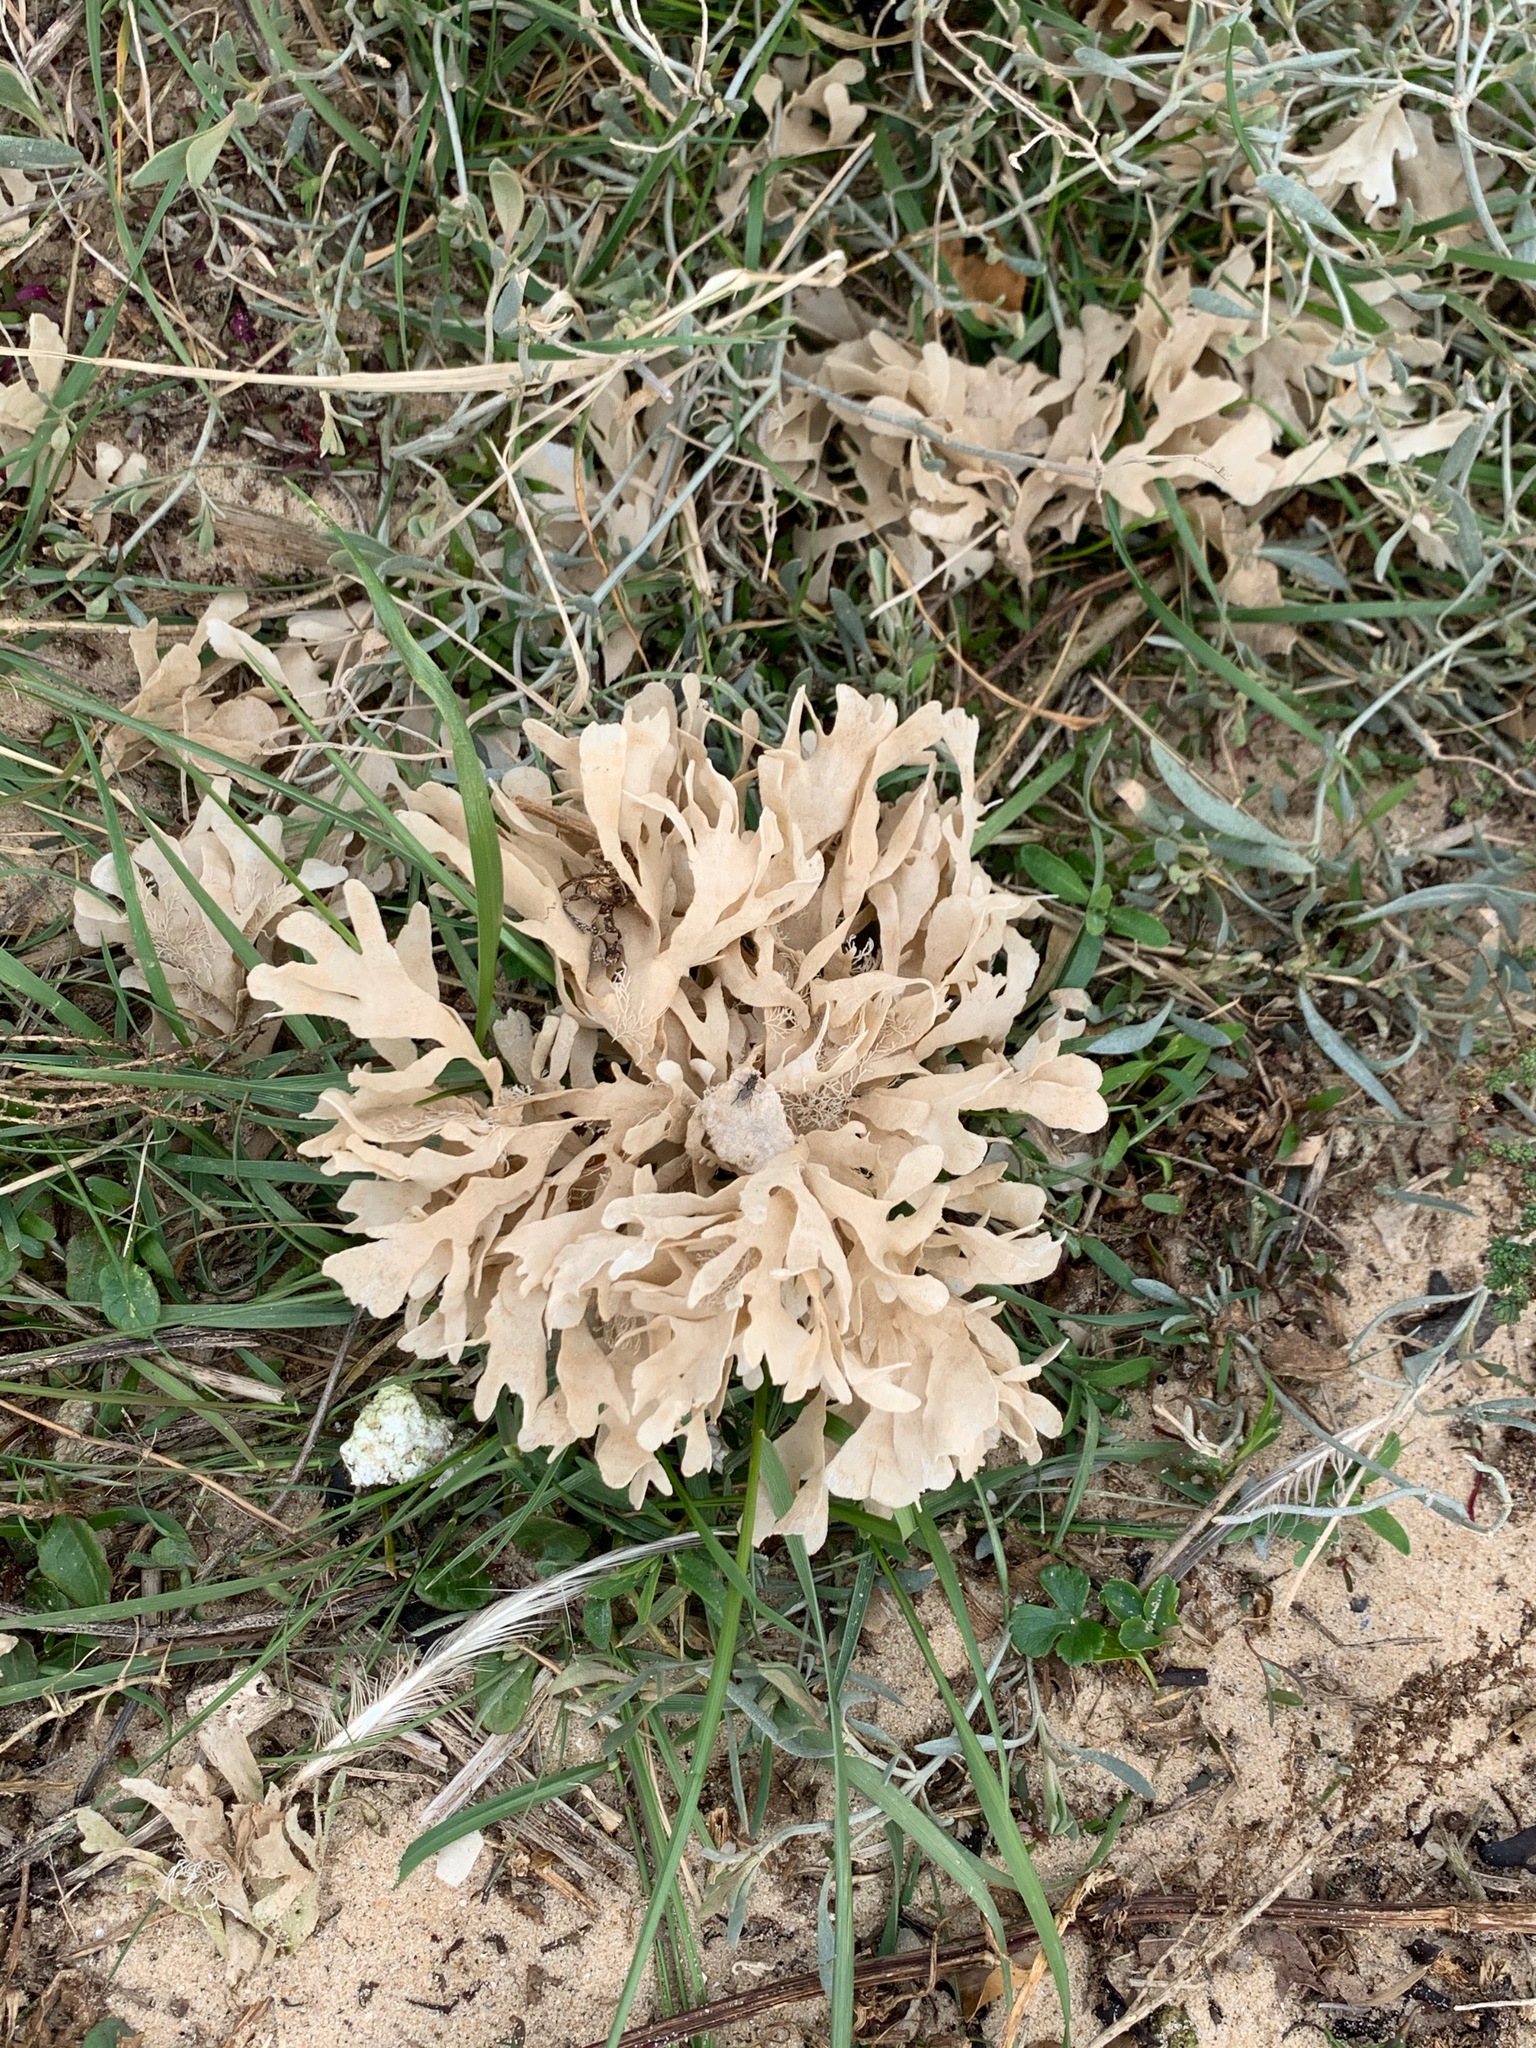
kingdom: Animalia
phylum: Bryozoa
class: Gymnolaemata
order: Cheilostomatida
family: Flustridae
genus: Flustra
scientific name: Flustra foliacea
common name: Hornwrack
